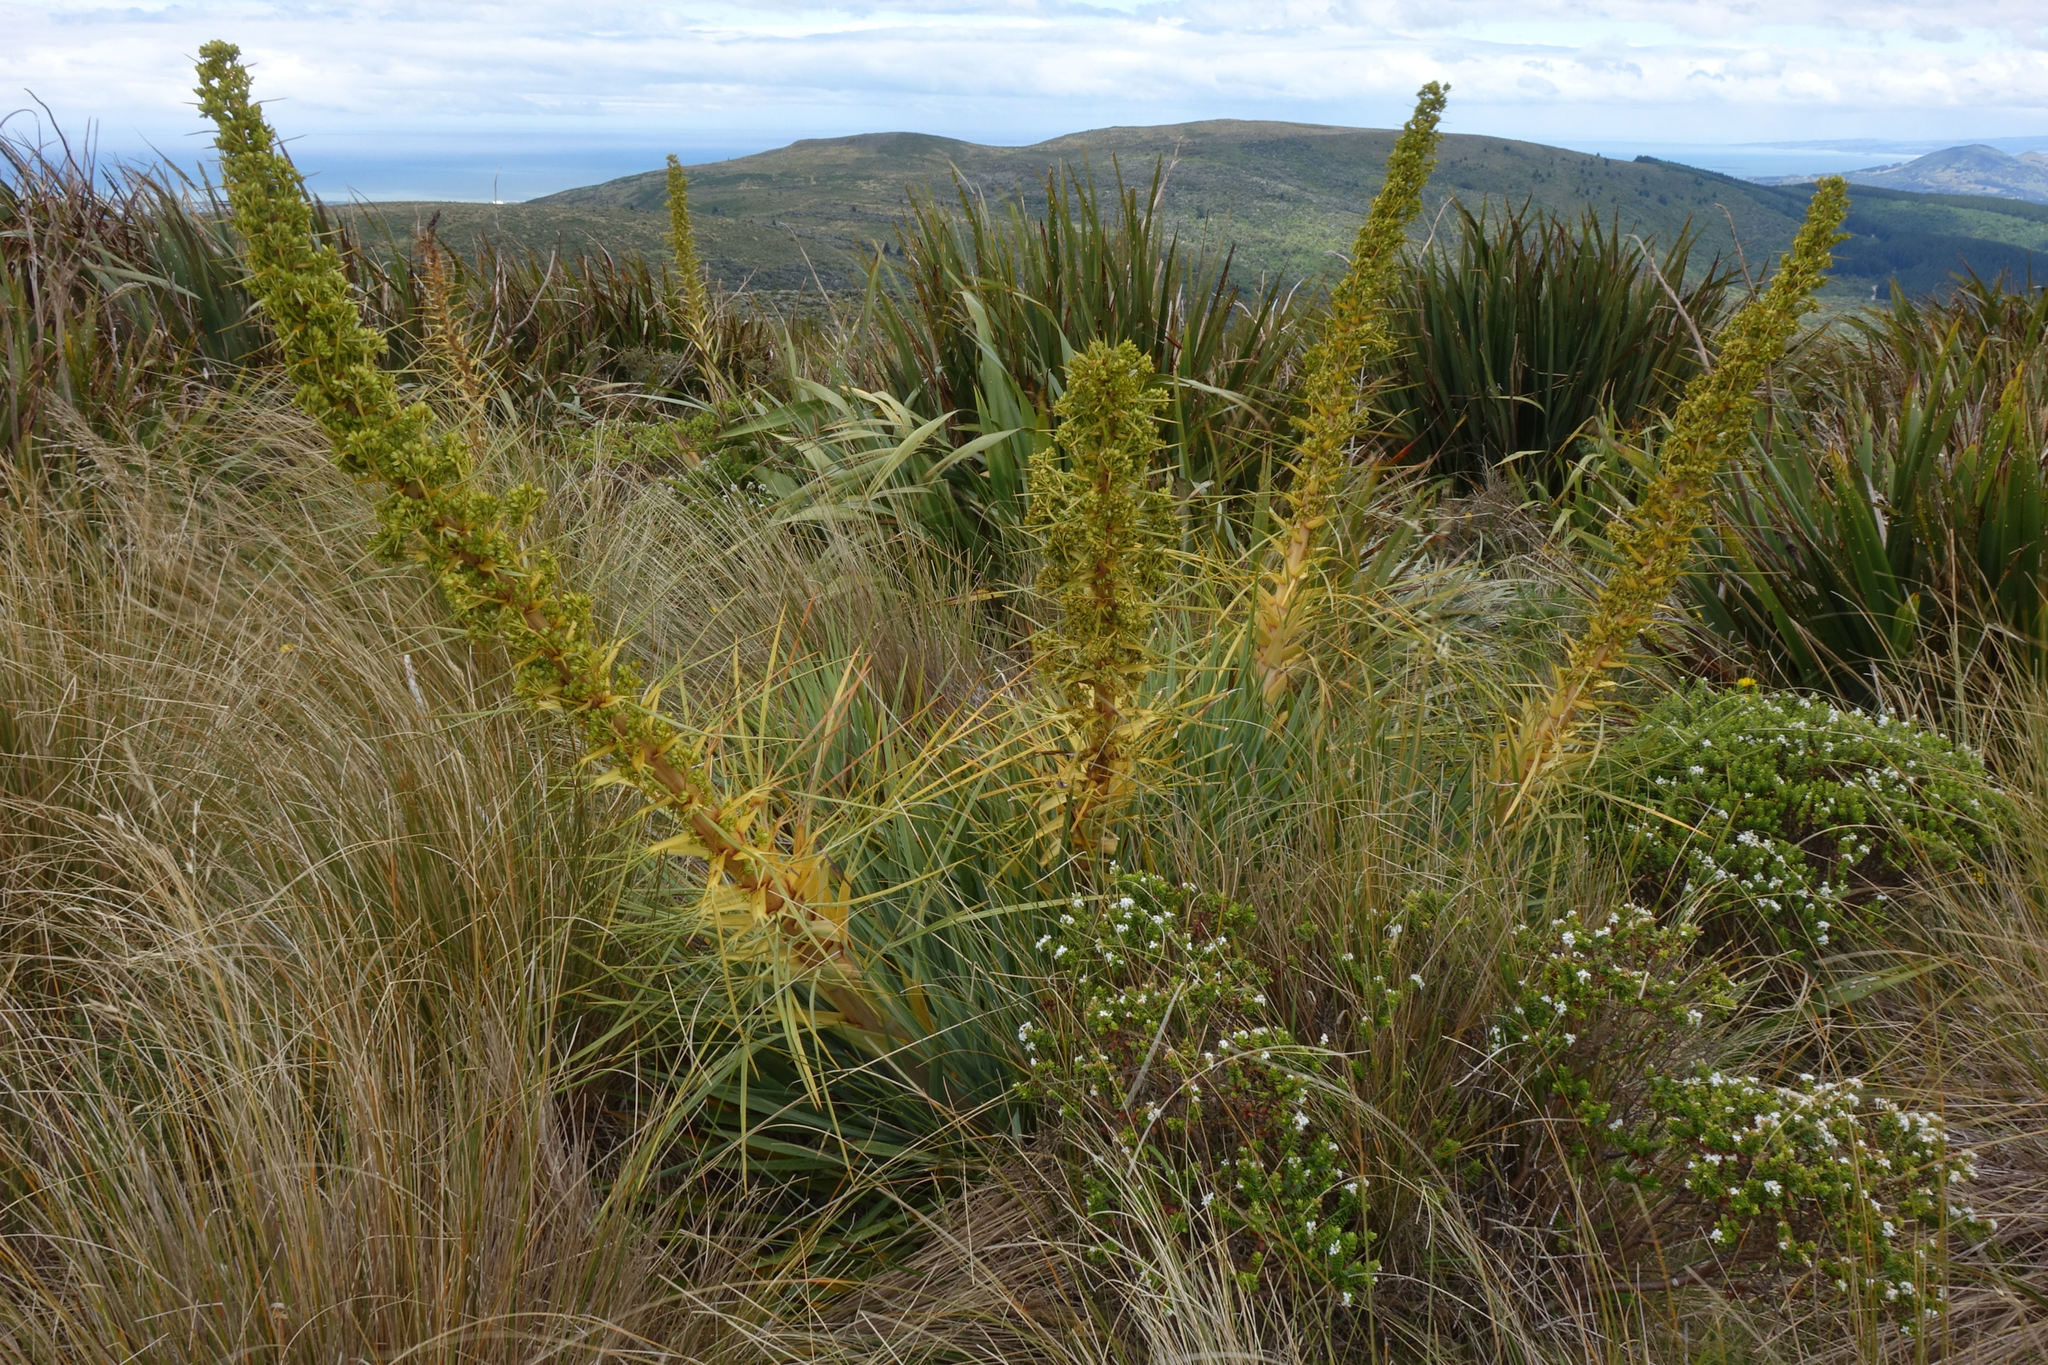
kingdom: Plantae
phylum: Tracheophyta
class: Magnoliopsida
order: Apiales
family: Apiaceae
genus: Aciphylla
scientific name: Aciphylla scott-thomsonii
